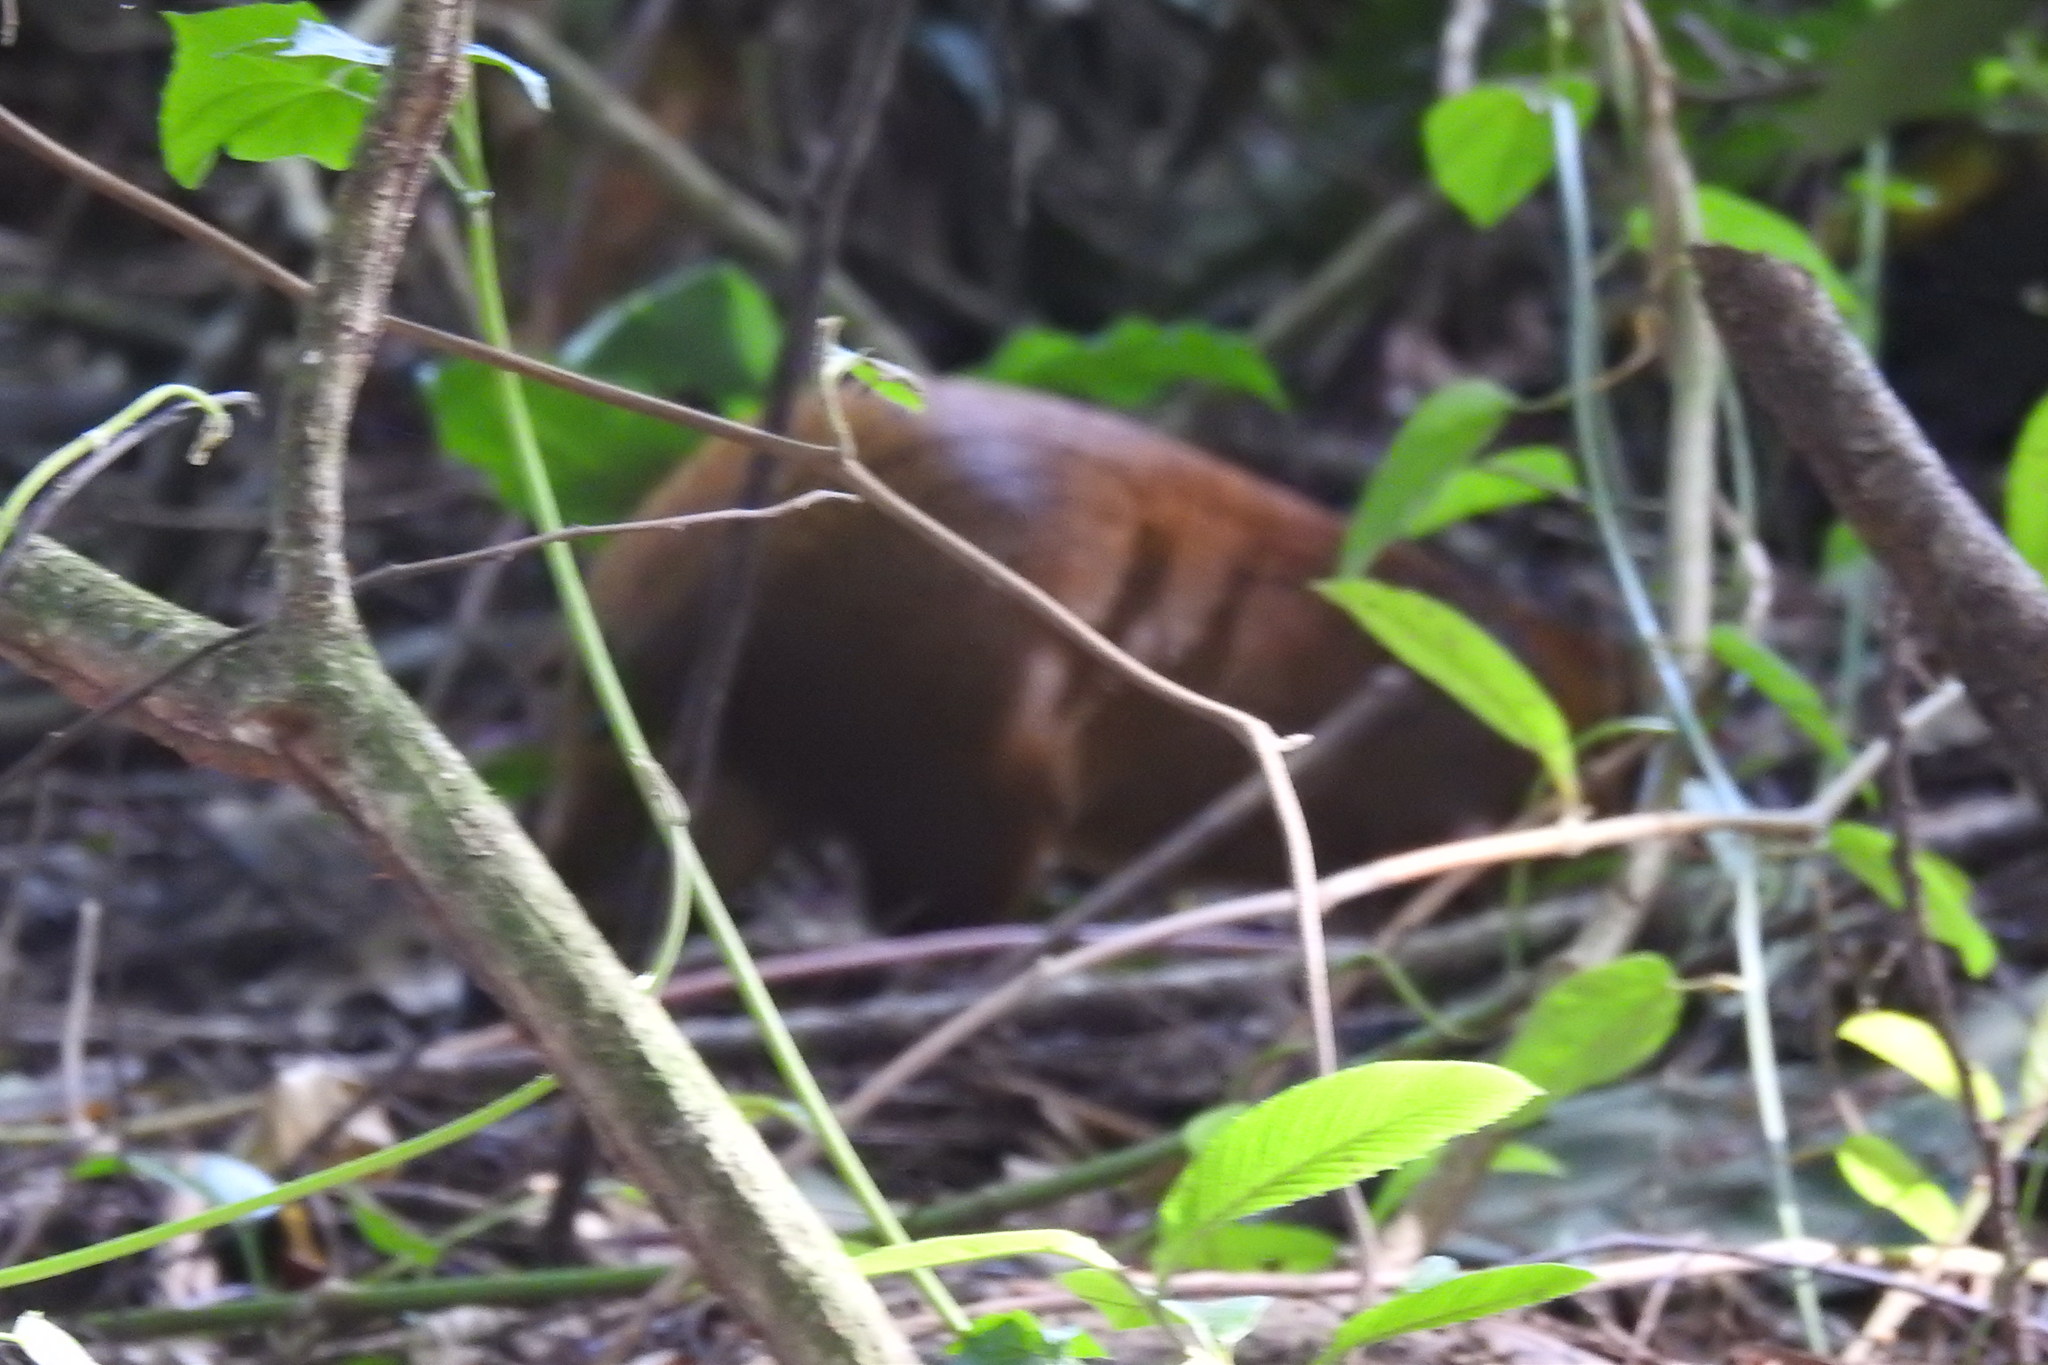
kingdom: Animalia
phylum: Chordata
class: Mammalia
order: Rodentia
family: Dasyproctidae
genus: Dasyprocta
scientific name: Dasyprocta punctata
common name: Central american agouti
